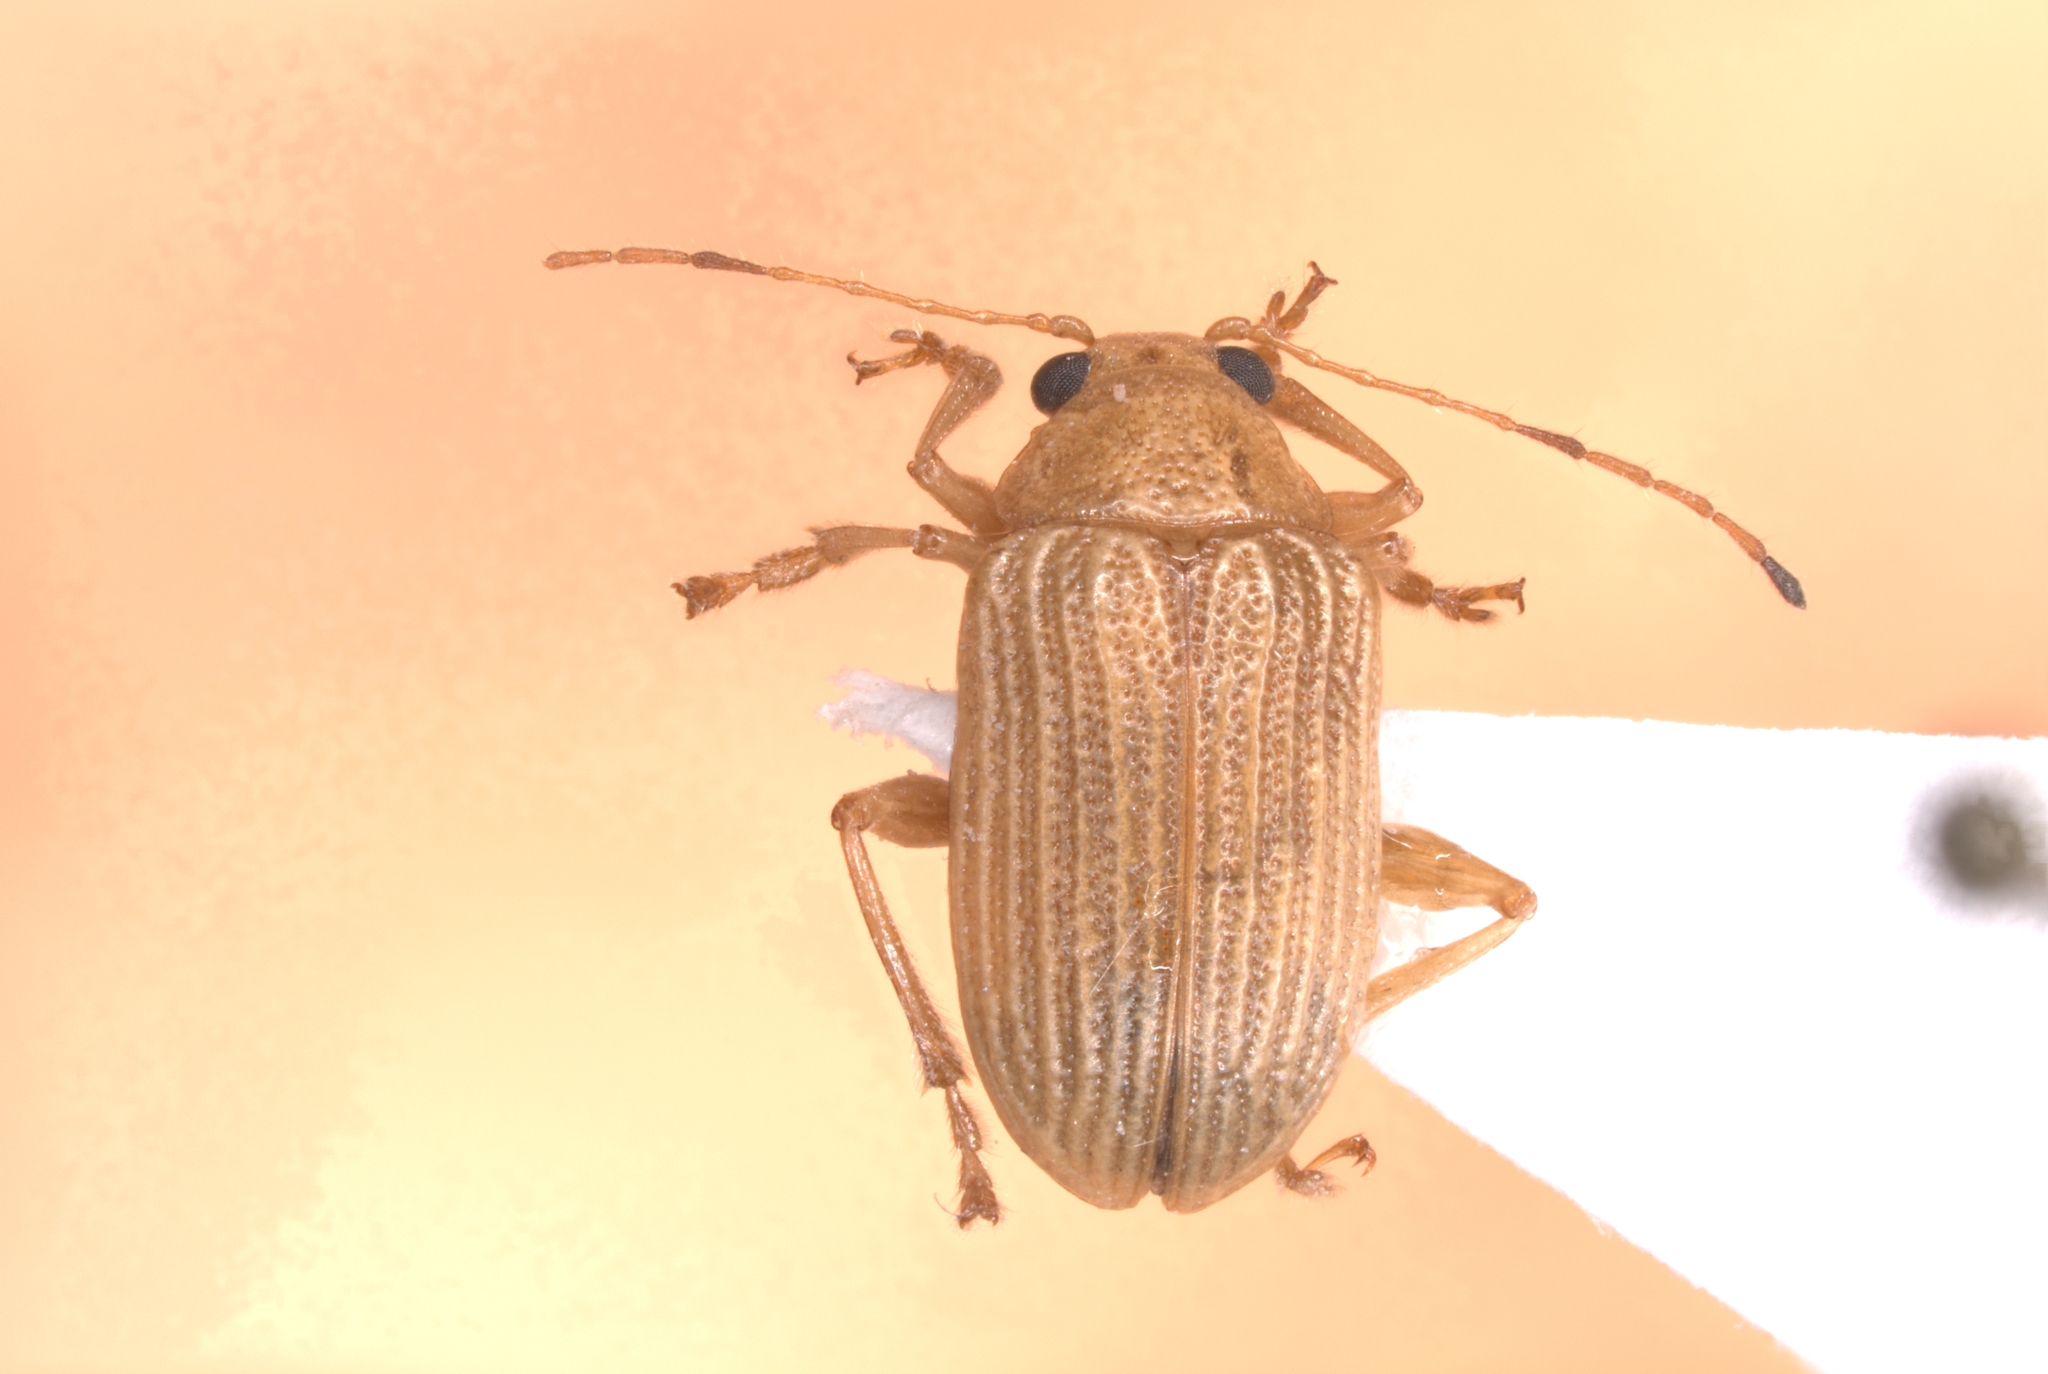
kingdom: Animalia
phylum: Arthropoda
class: Insecta
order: Coleoptera
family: Chrysomelidae
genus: Colaspis
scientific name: Colaspis brunnea
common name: Grape colaspis
